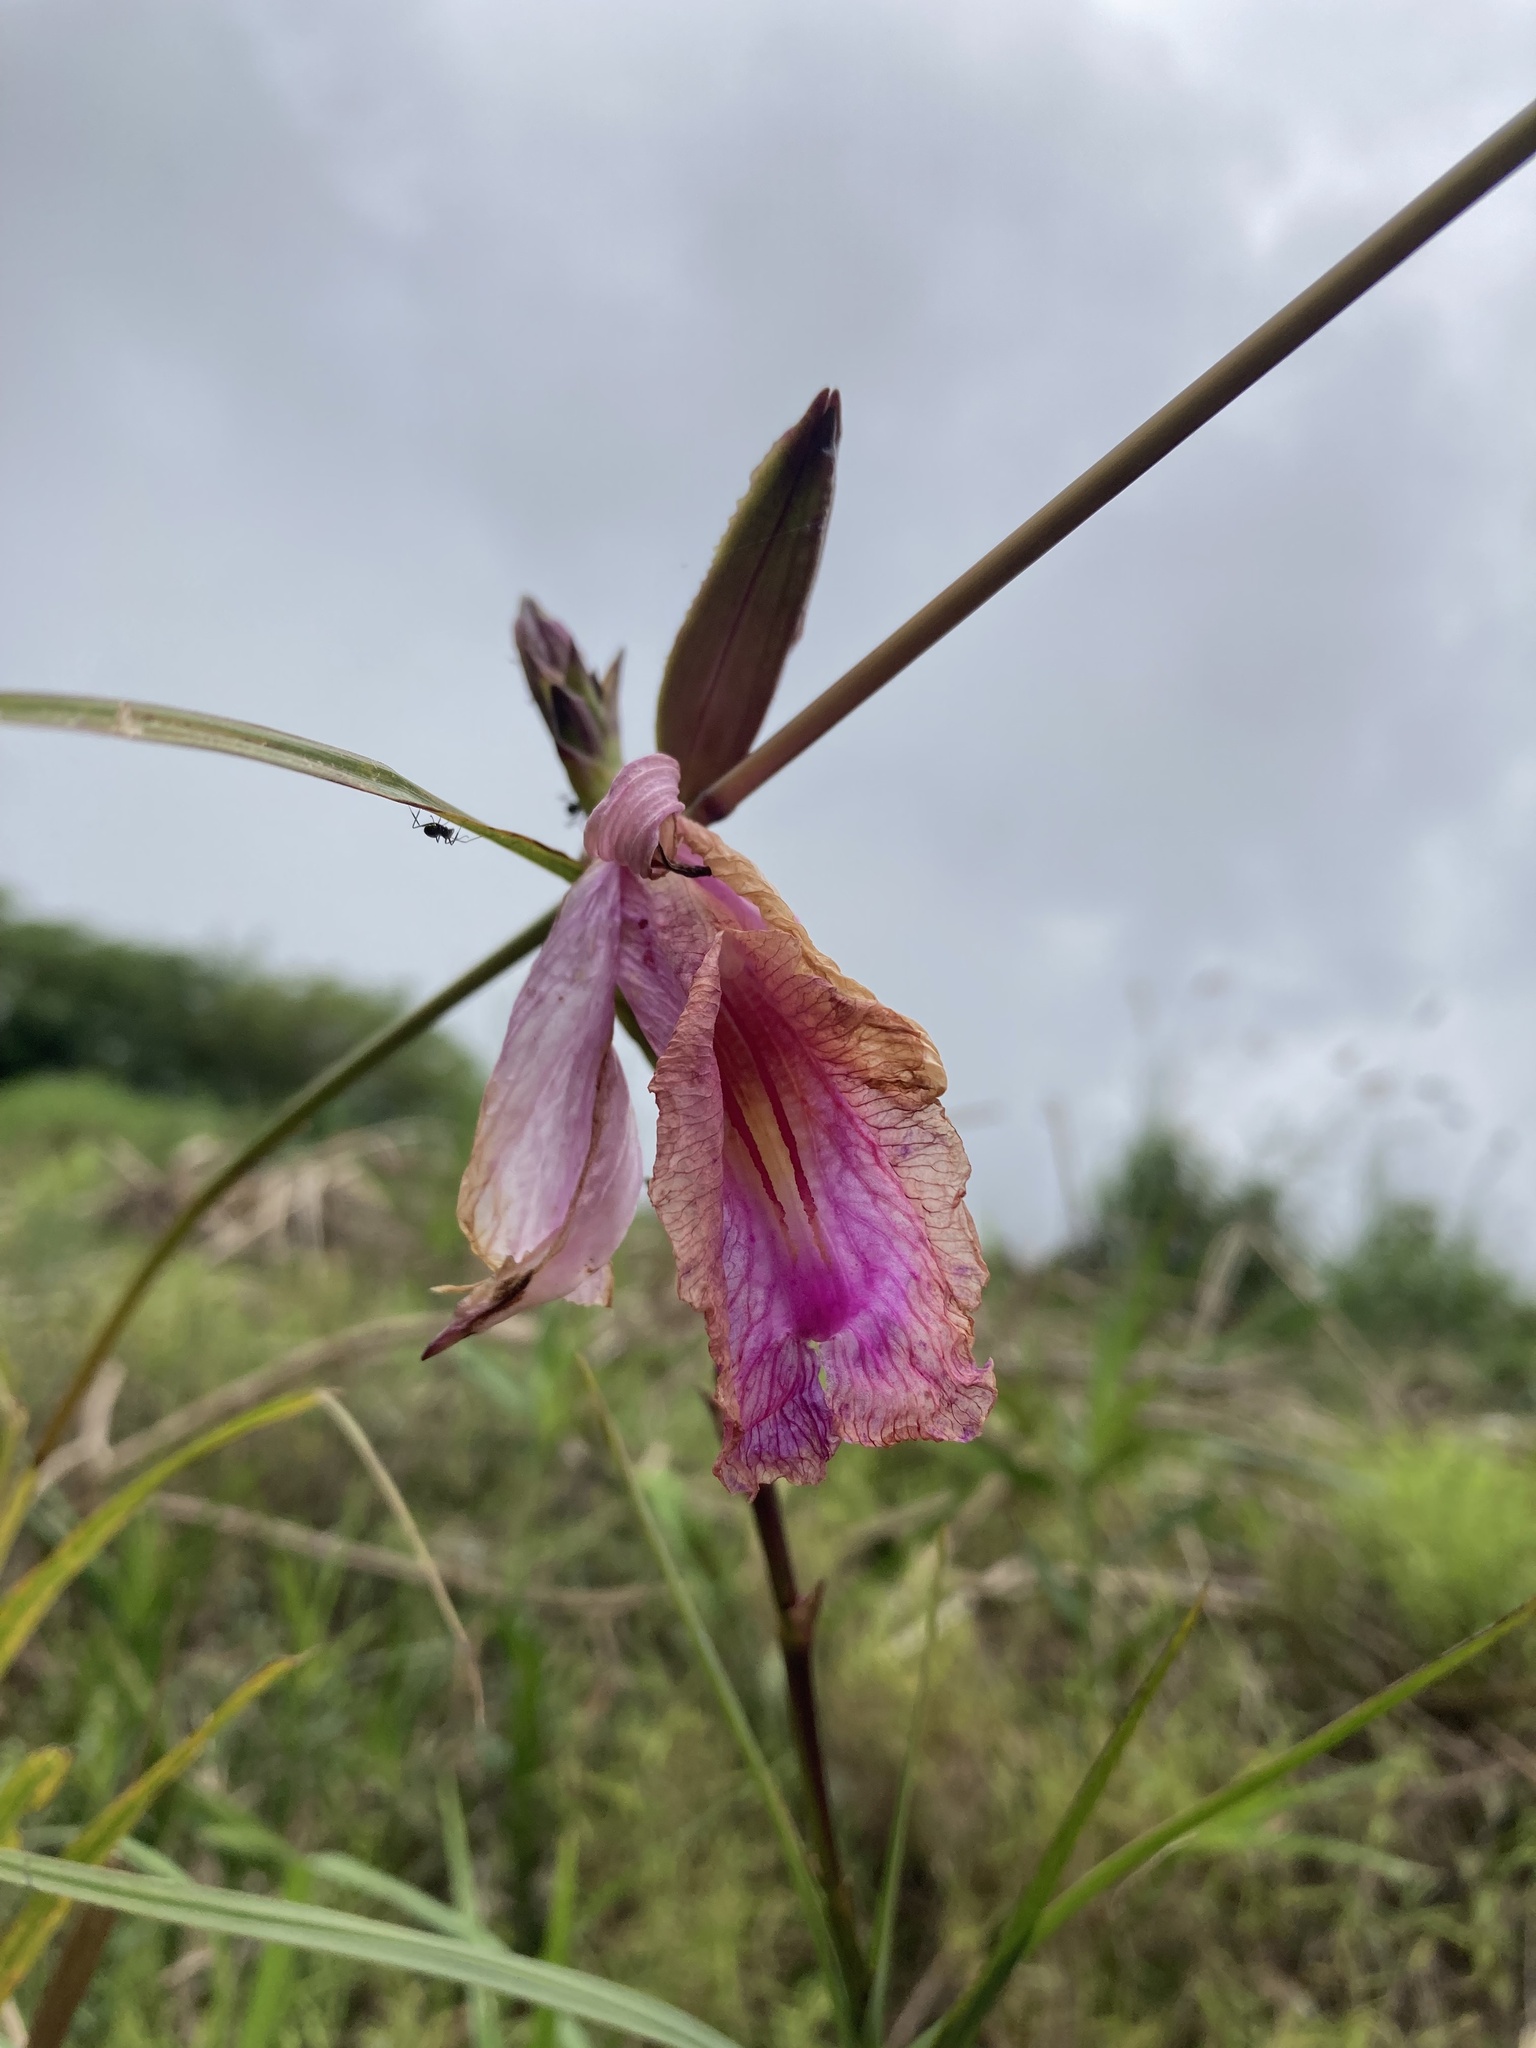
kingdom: Plantae
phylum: Tracheophyta
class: Liliopsida
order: Asparagales
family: Orchidaceae
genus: Arundina
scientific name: Arundina graminifolia
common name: Bamboo orchid
